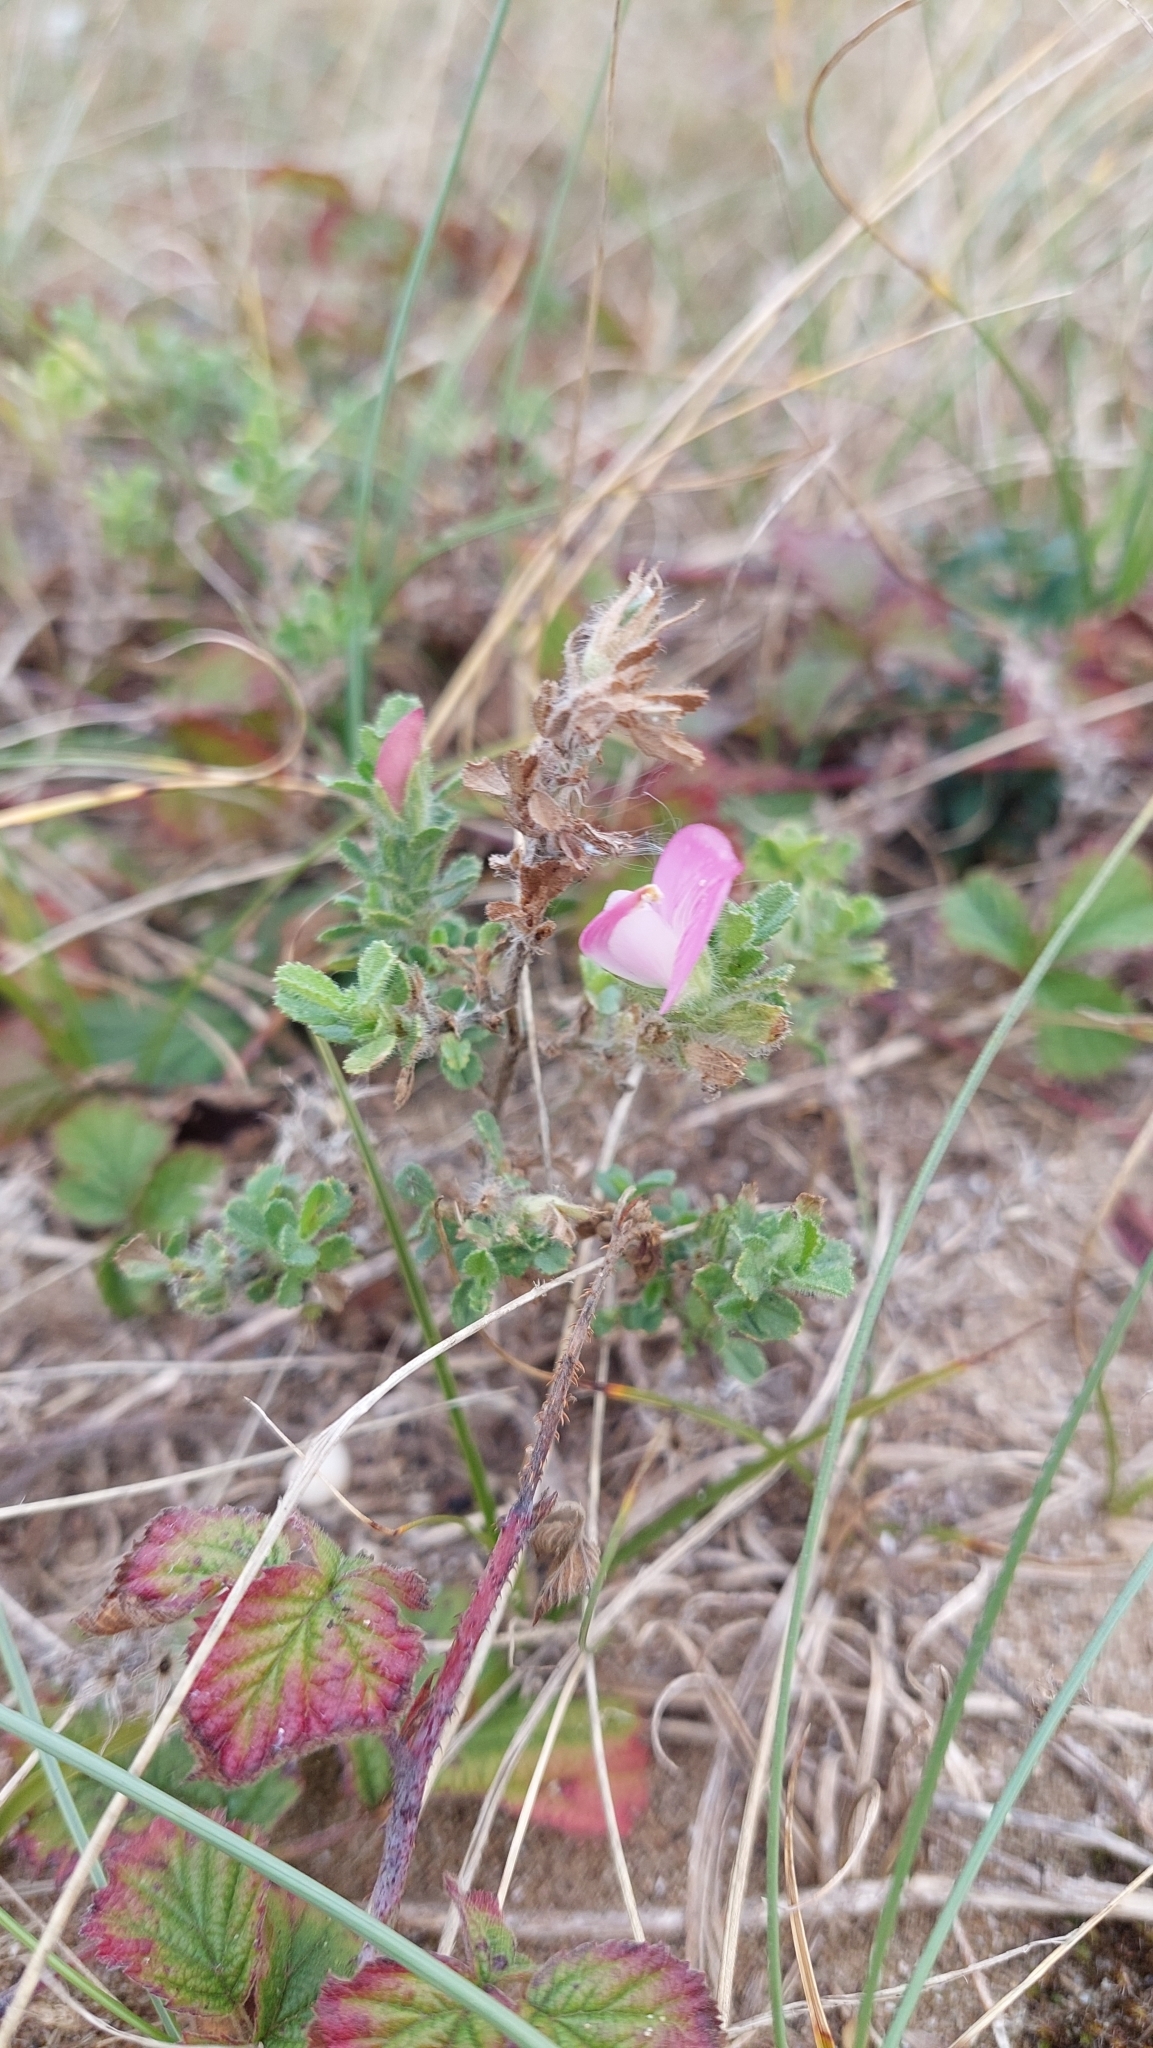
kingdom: Plantae
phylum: Tracheophyta
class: Magnoliopsida
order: Fabales
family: Fabaceae
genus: Ononis
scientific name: Ononis spinosa
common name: Spiny restharrow
